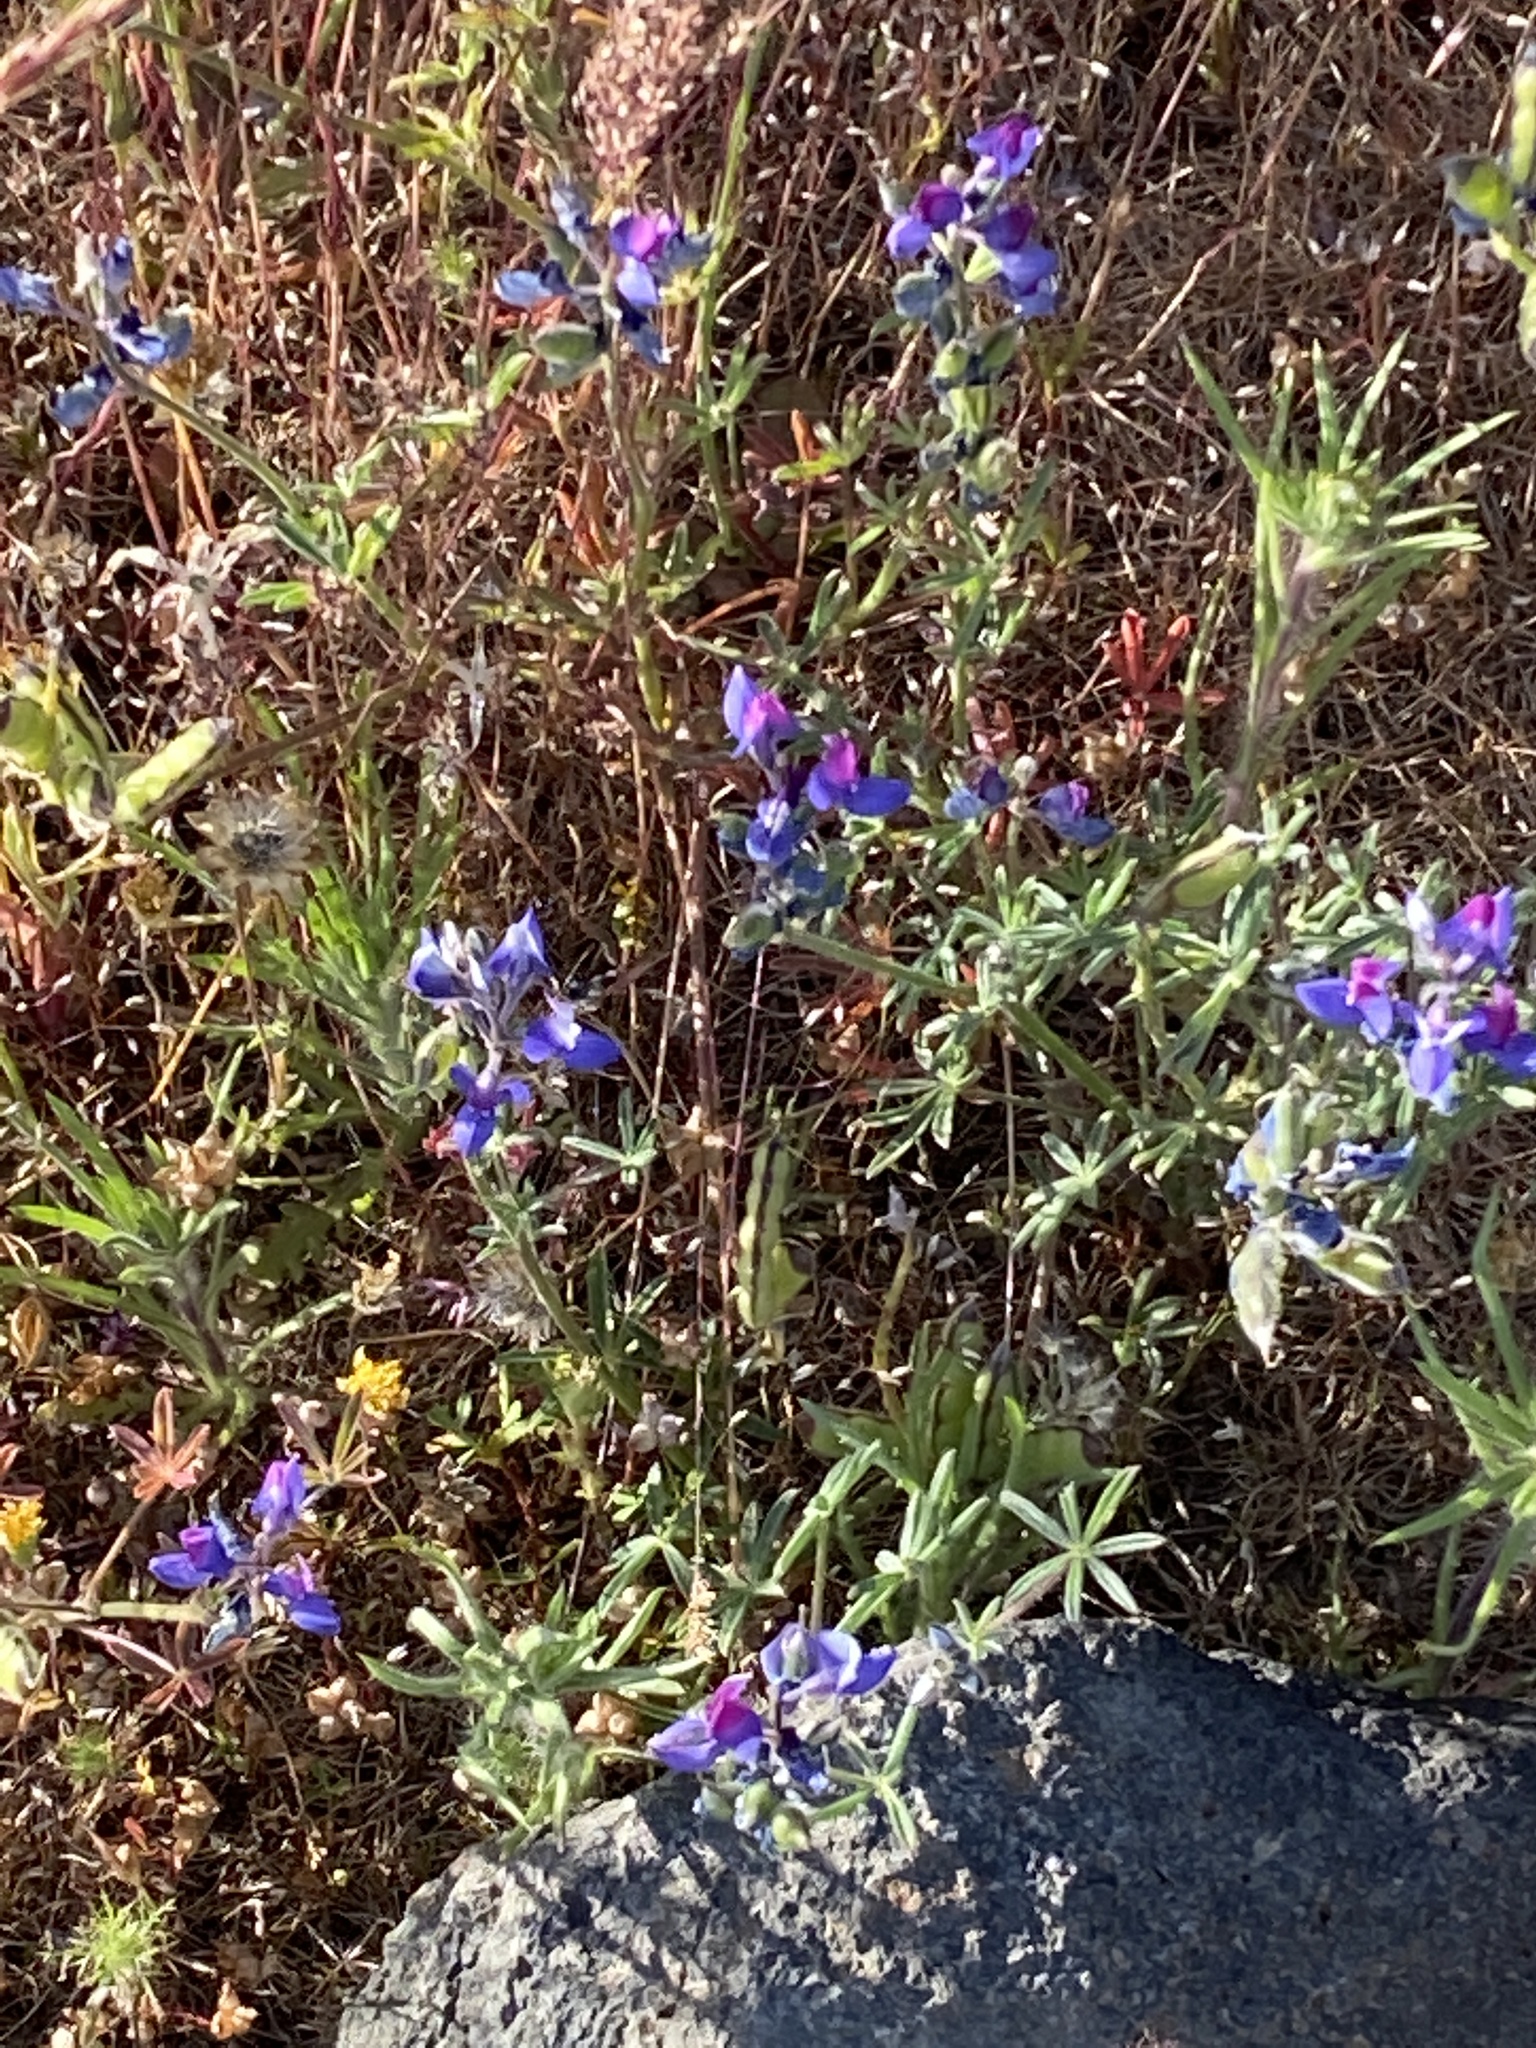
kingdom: Plantae
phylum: Tracheophyta
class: Magnoliopsida
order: Fabales
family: Fabaceae
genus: Lupinus
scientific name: Lupinus bicolor
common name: Miniature lupine
